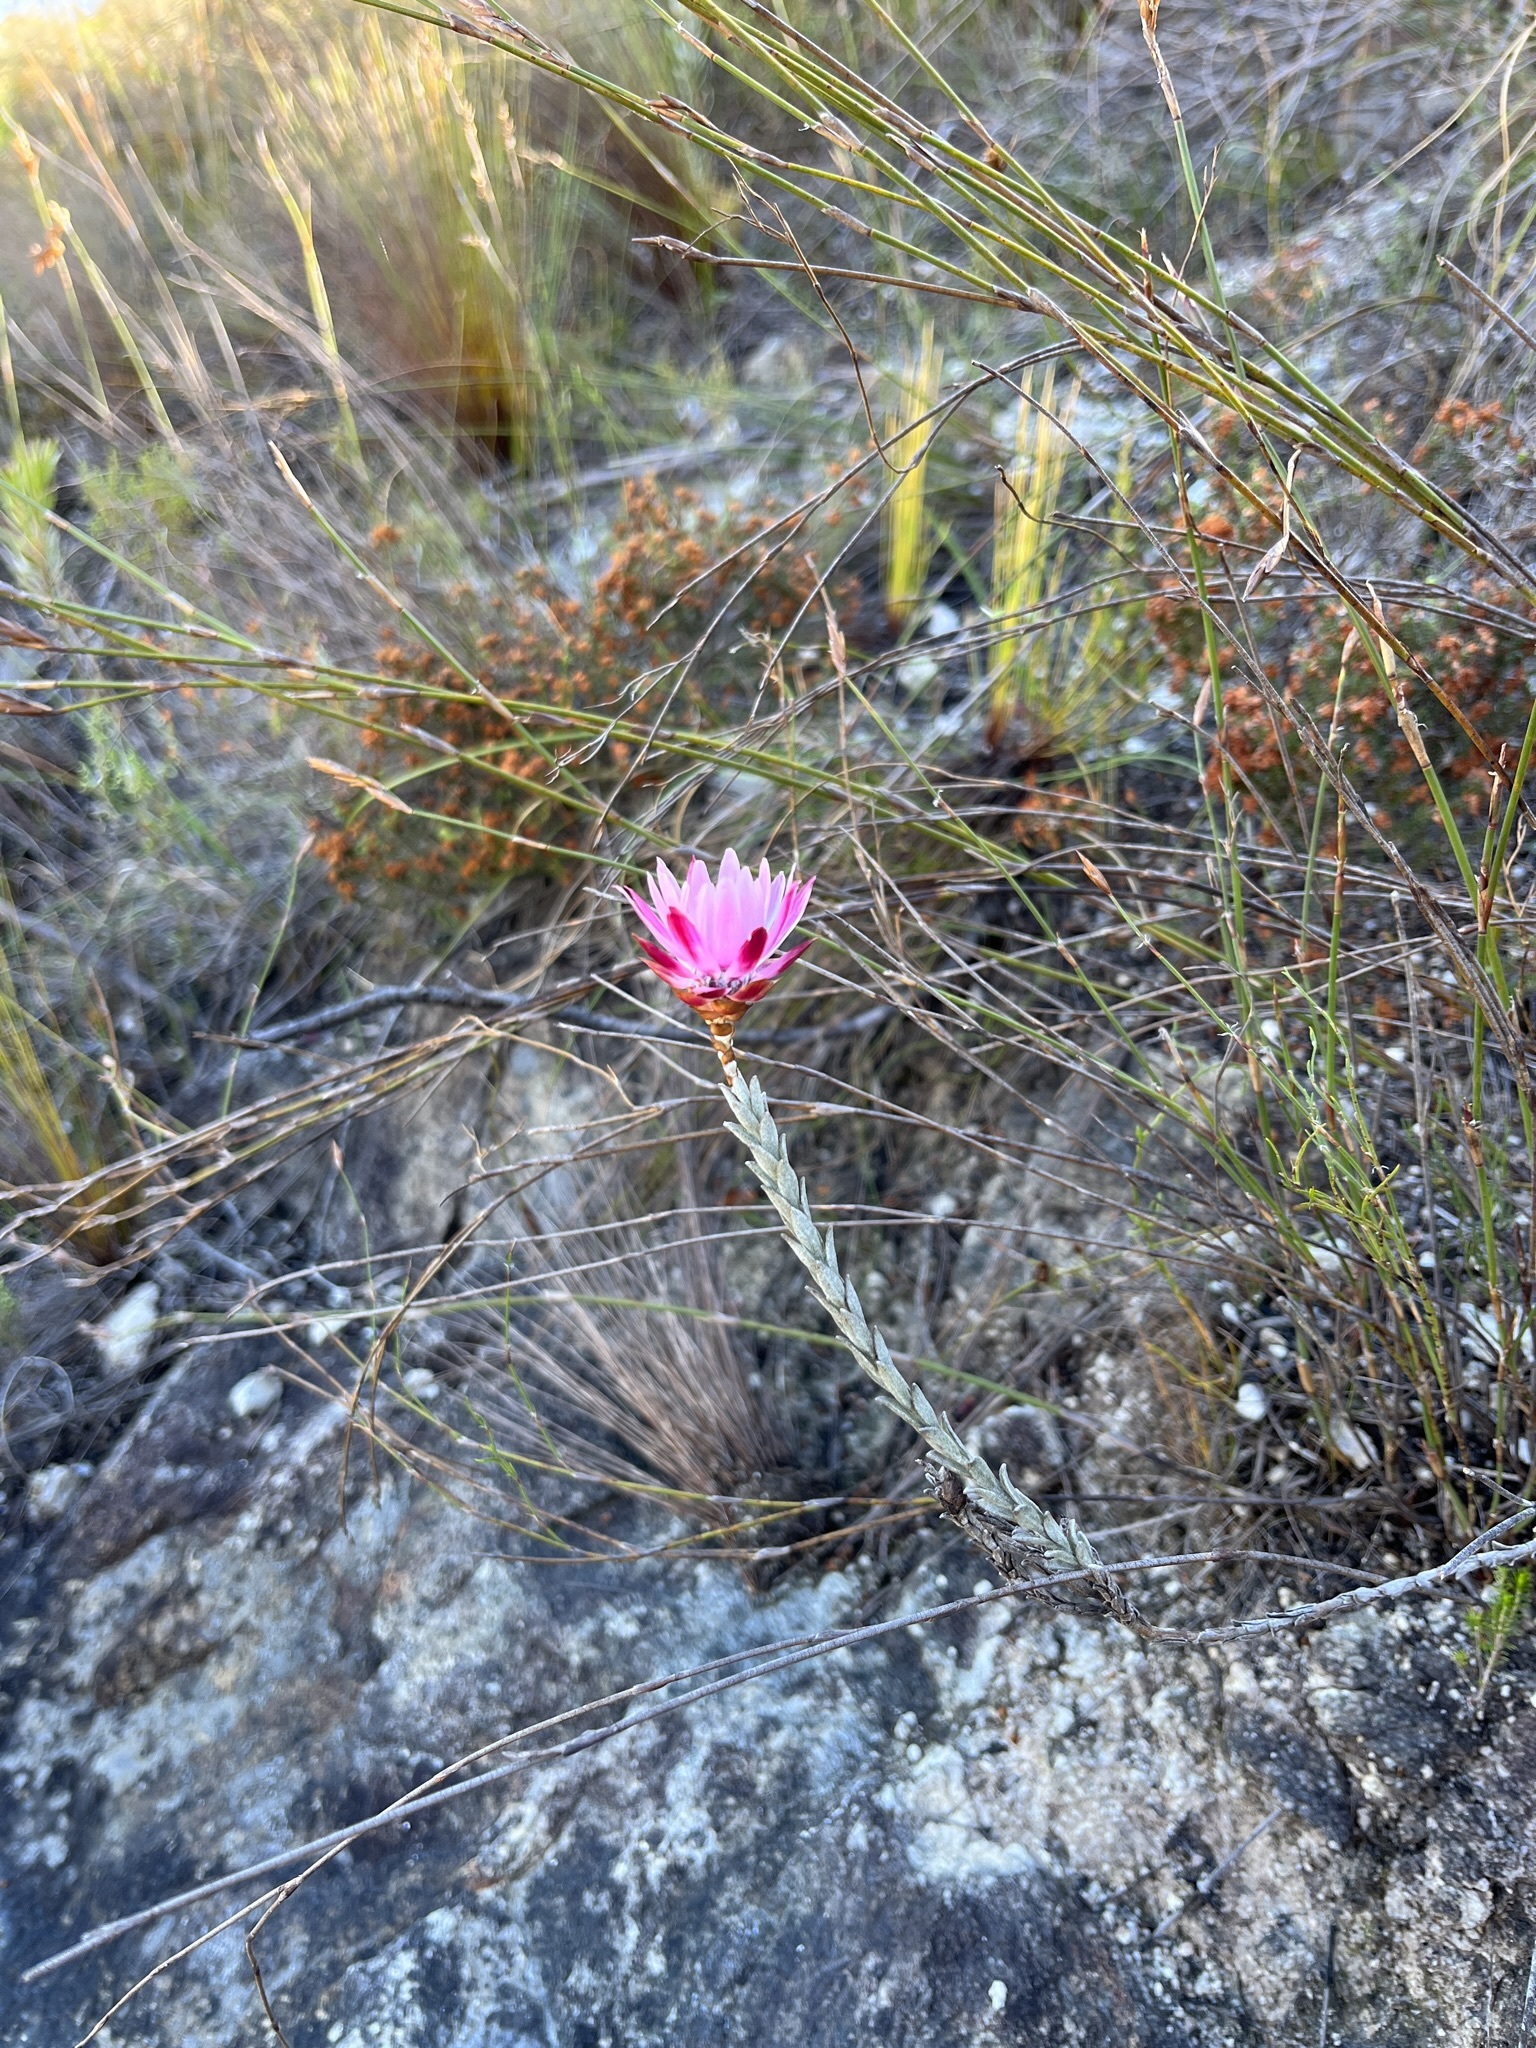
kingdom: Plantae
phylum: Tracheophyta
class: Magnoliopsida
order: Asterales
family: Asteraceae
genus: Syncarpha
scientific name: Syncarpha canescens
